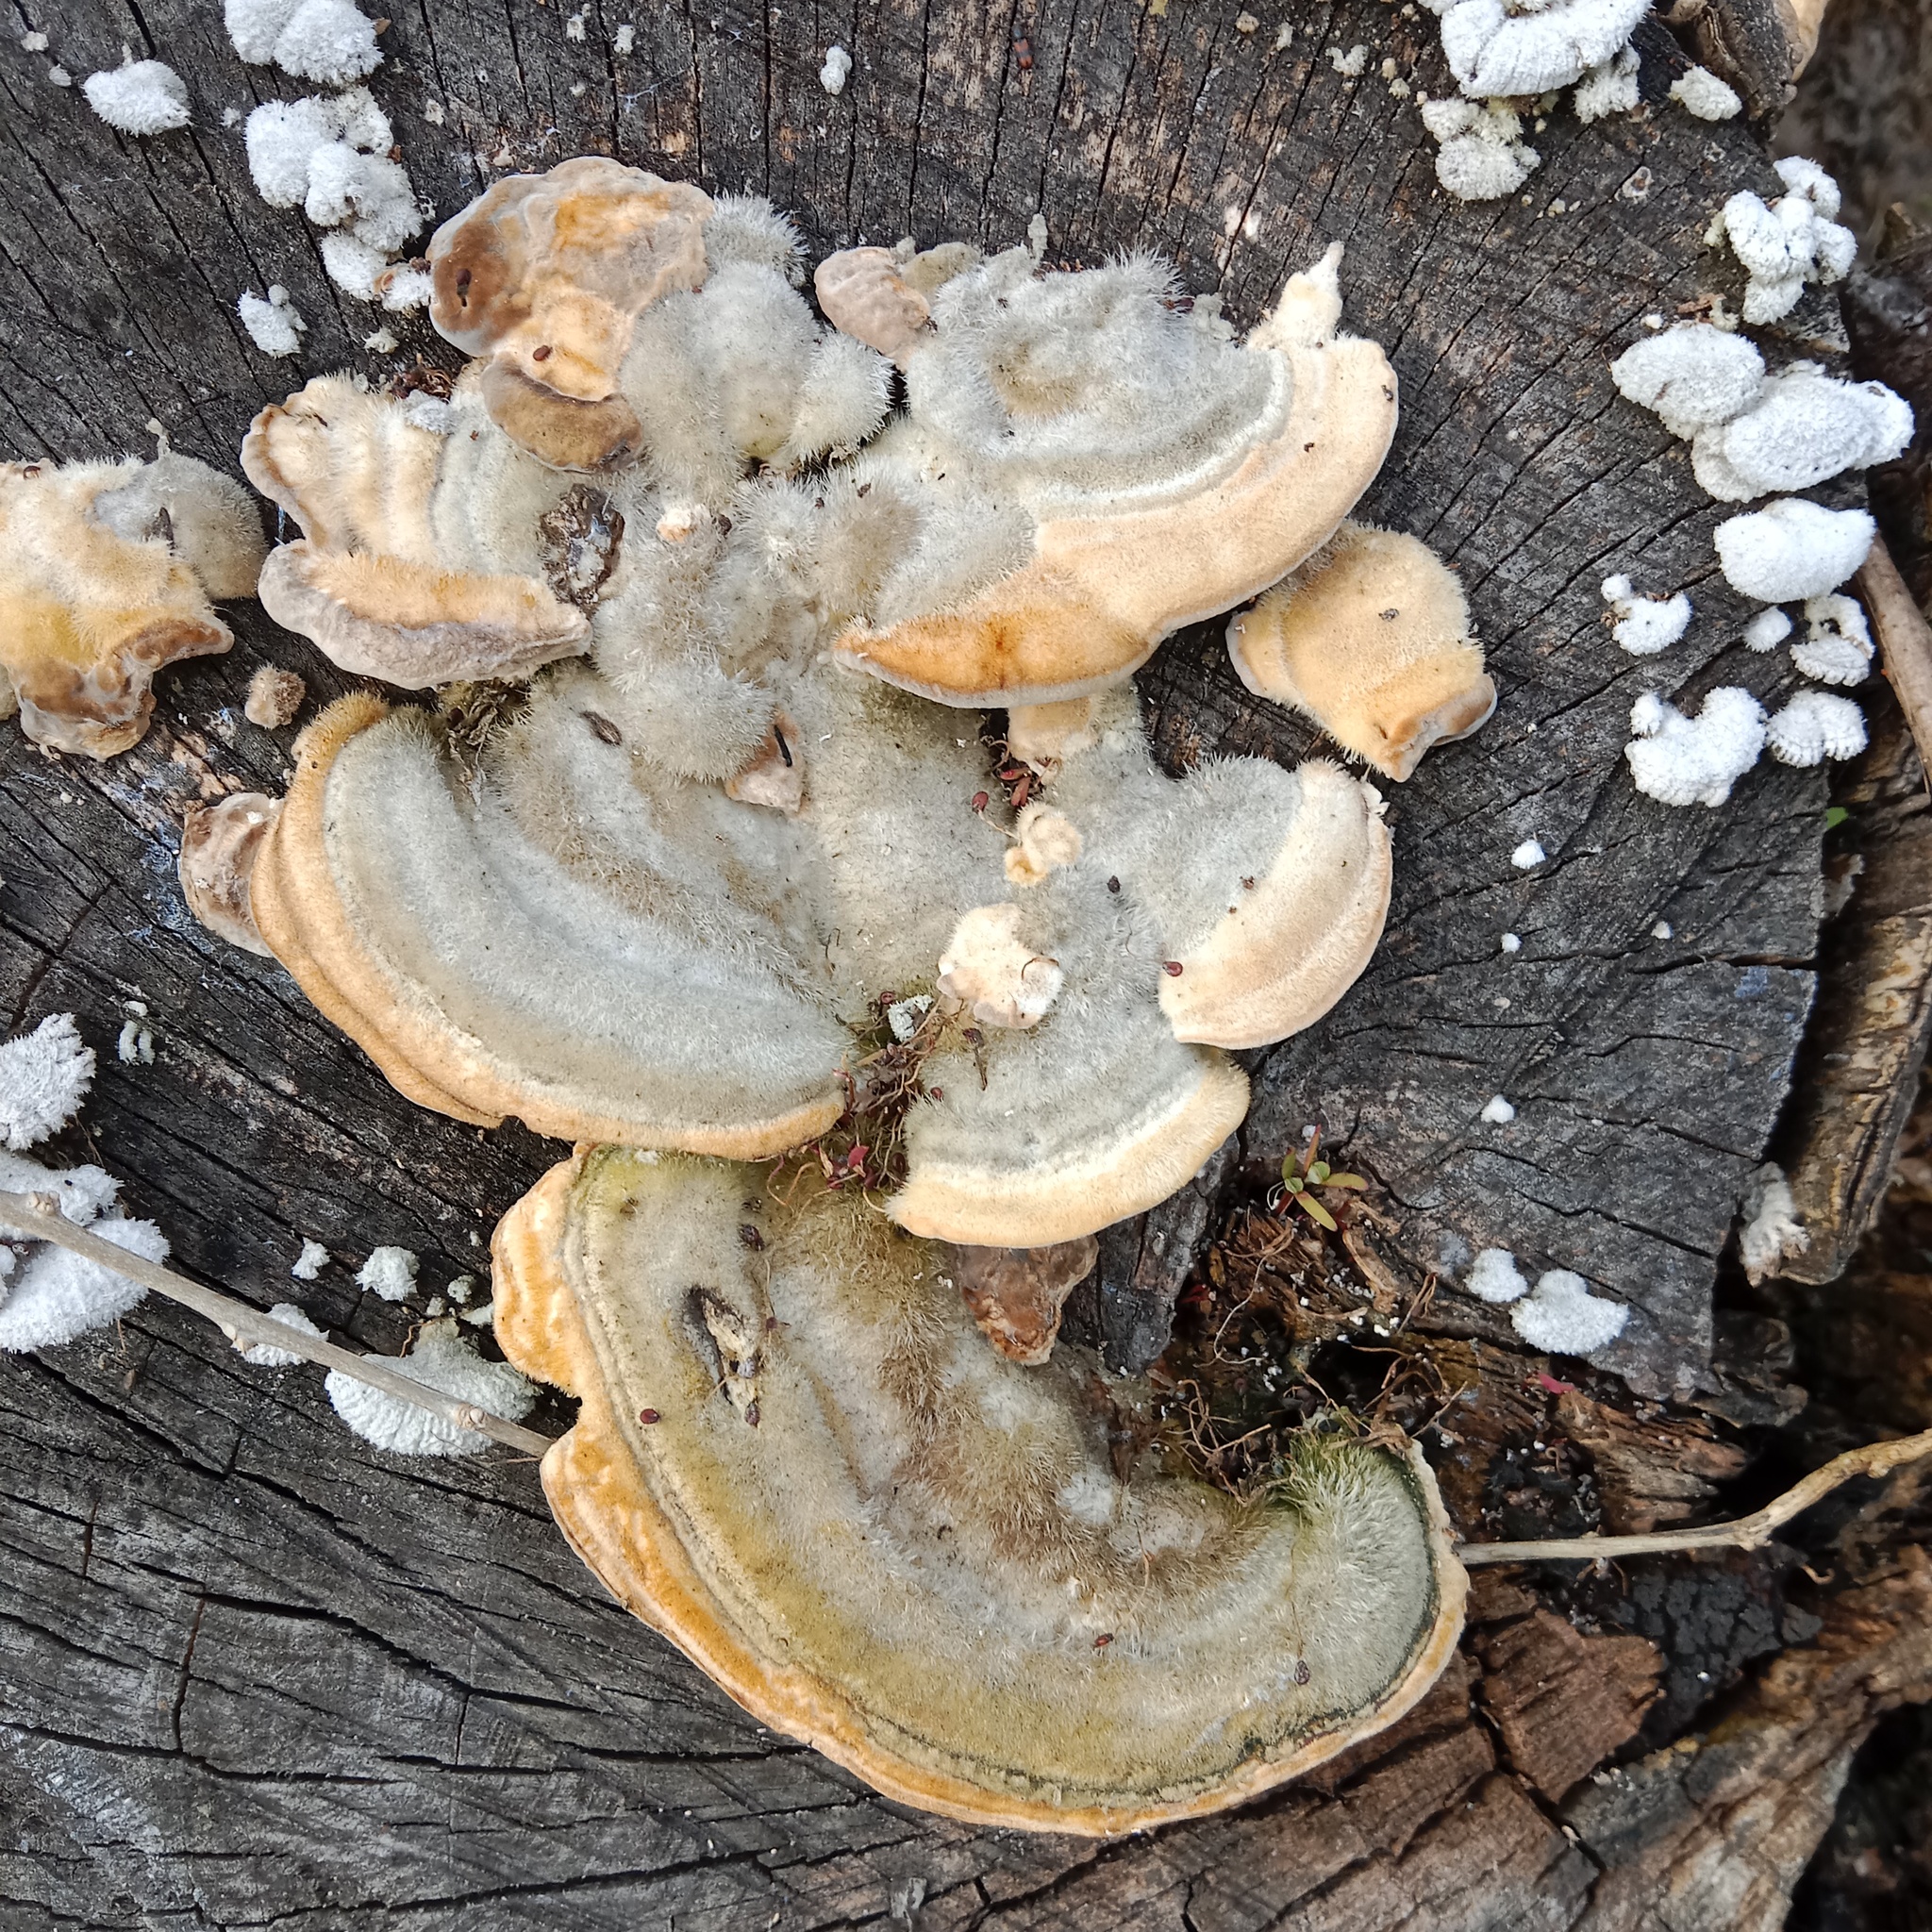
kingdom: Fungi
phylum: Basidiomycota
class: Agaricomycetes
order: Polyporales
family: Polyporaceae
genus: Trametes
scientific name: Trametes hirsuta
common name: Hairy bracket
